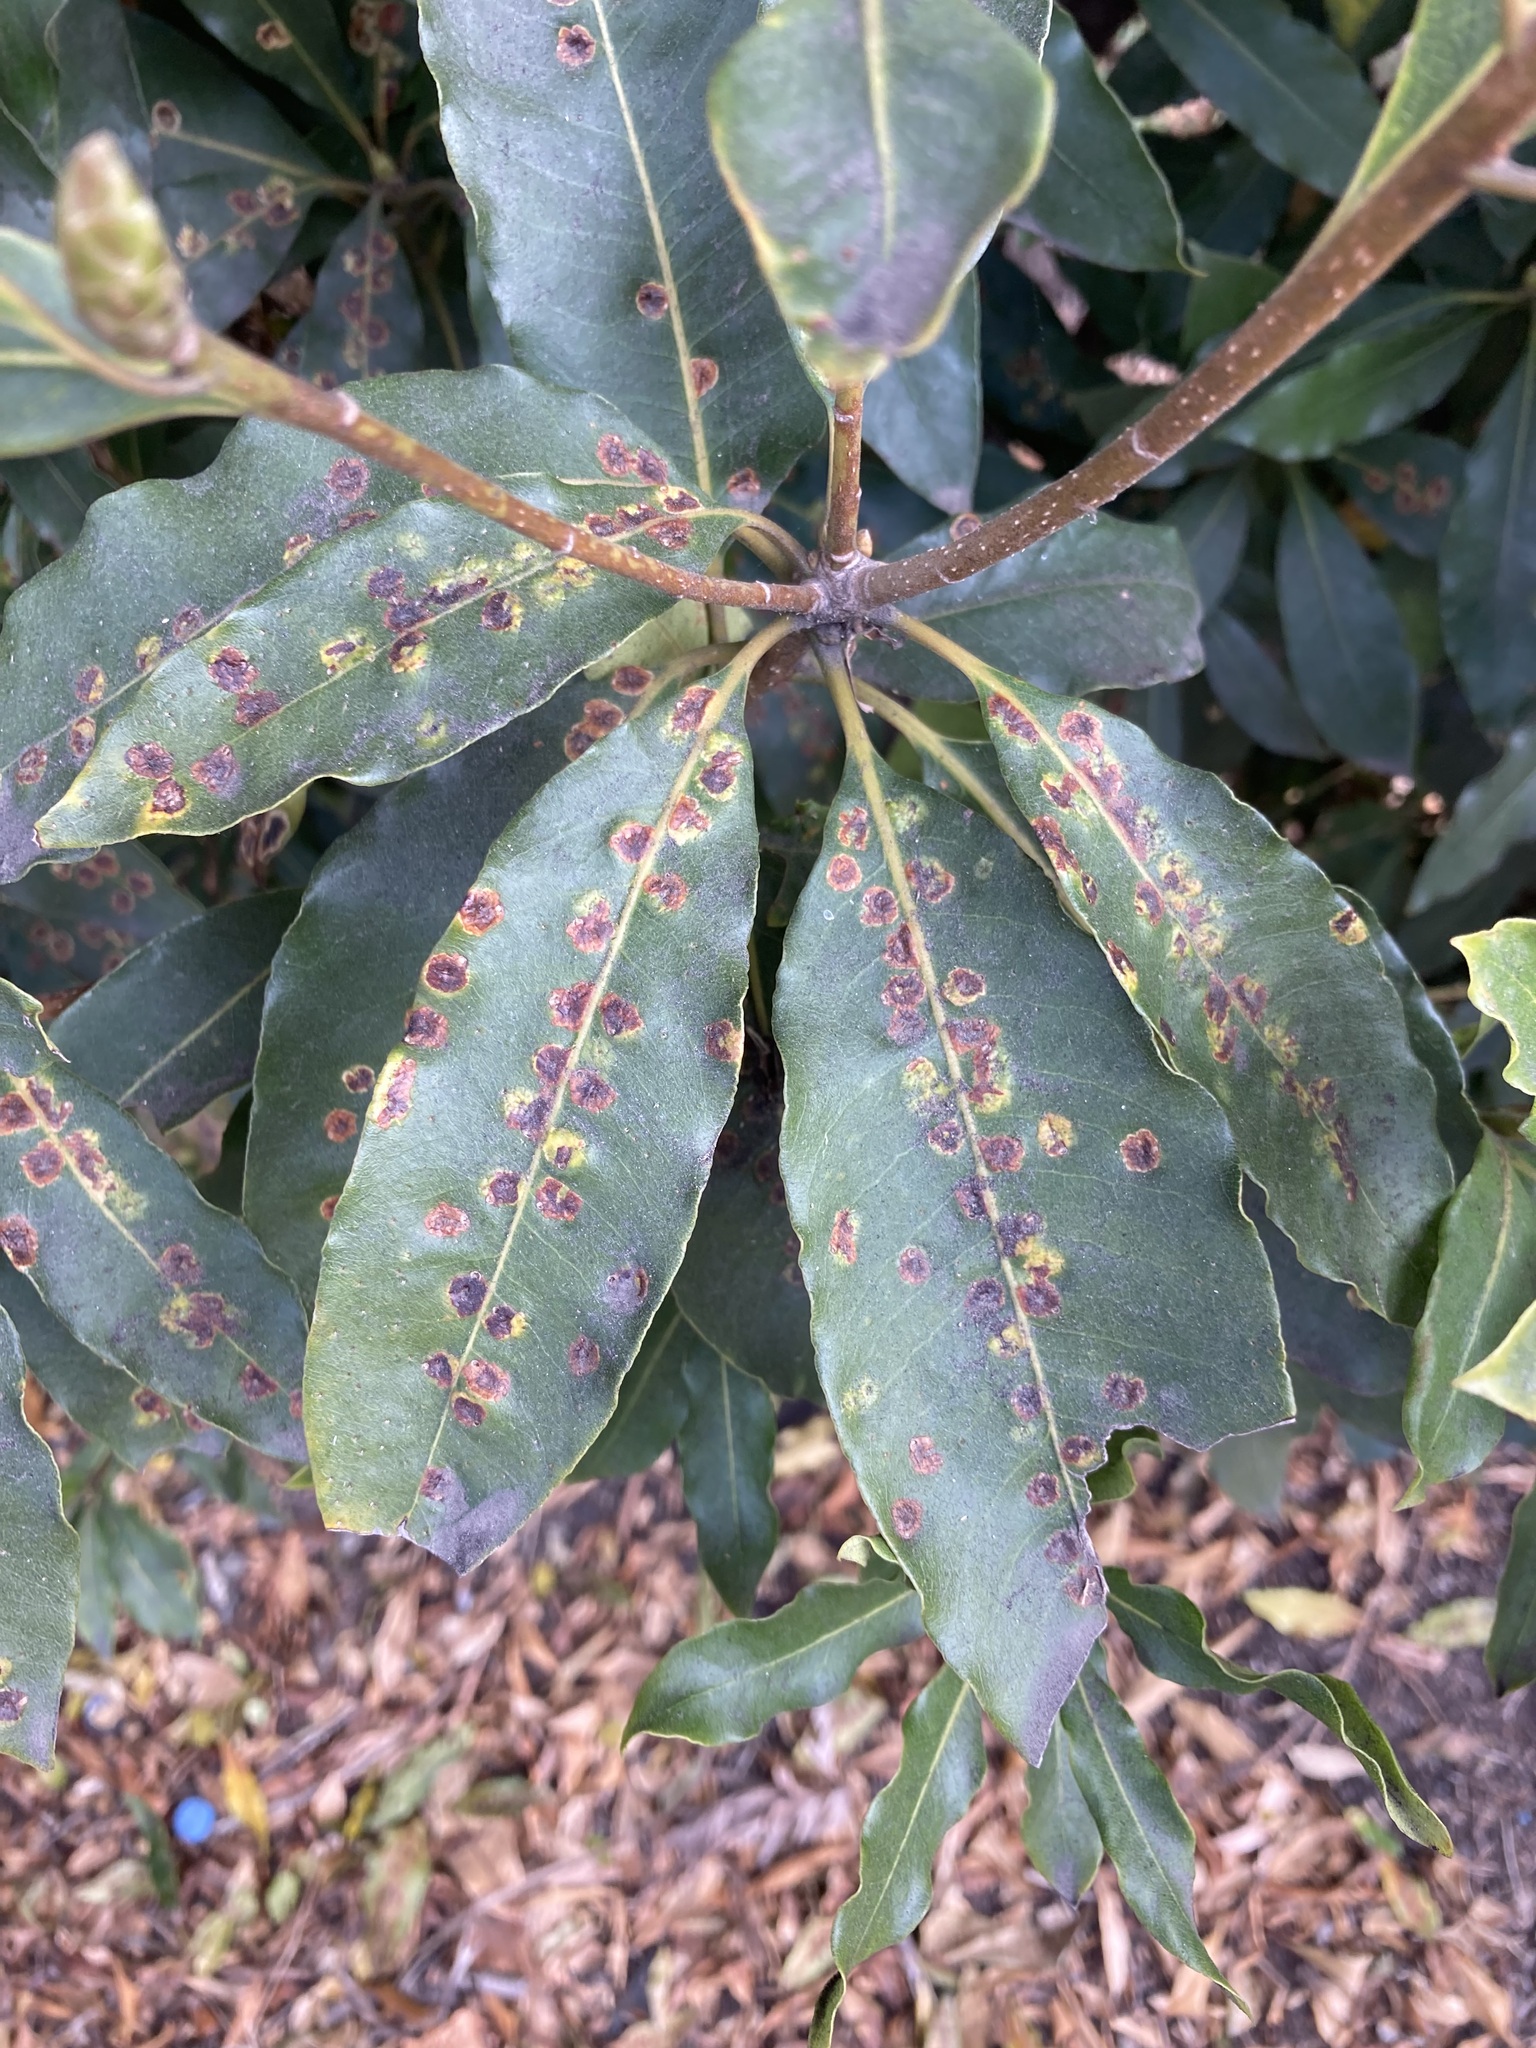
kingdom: Animalia
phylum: Arthropoda
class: Insecta
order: Diptera
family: Agromyzidae
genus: Phytoliriomyza
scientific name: Phytoliriomyza pittosporophylli
